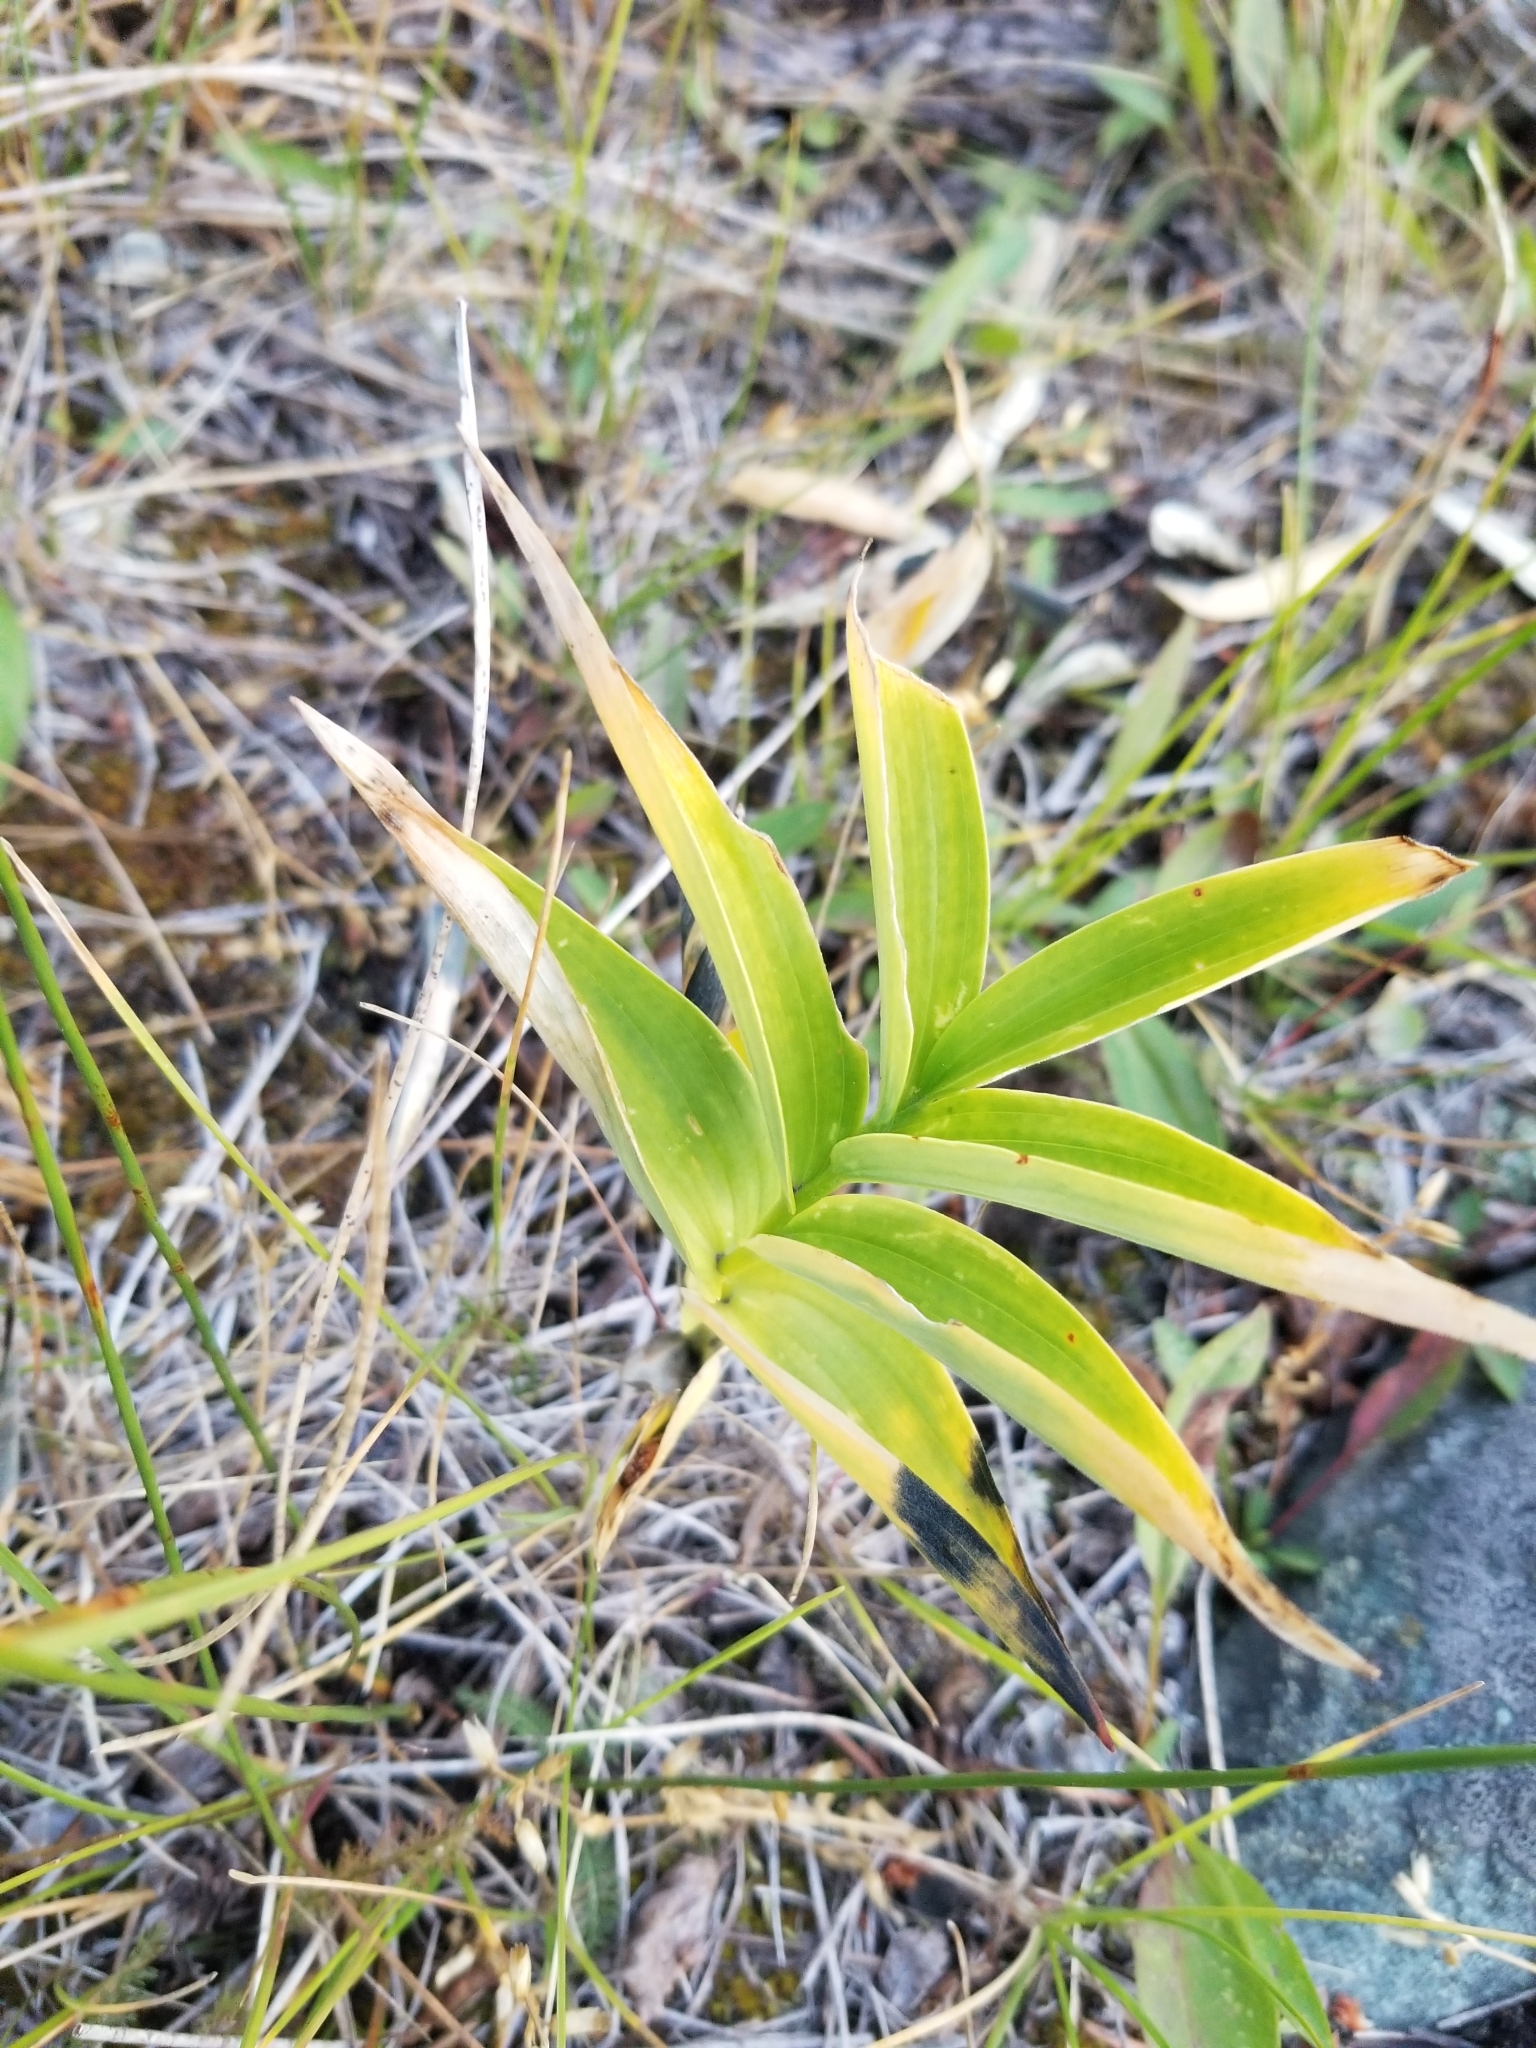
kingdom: Plantae
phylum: Tracheophyta
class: Liliopsida
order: Asparagales
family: Asparagaceae
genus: Maianthemum
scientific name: Maianthemum stellatum
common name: Little false solomon's seal
